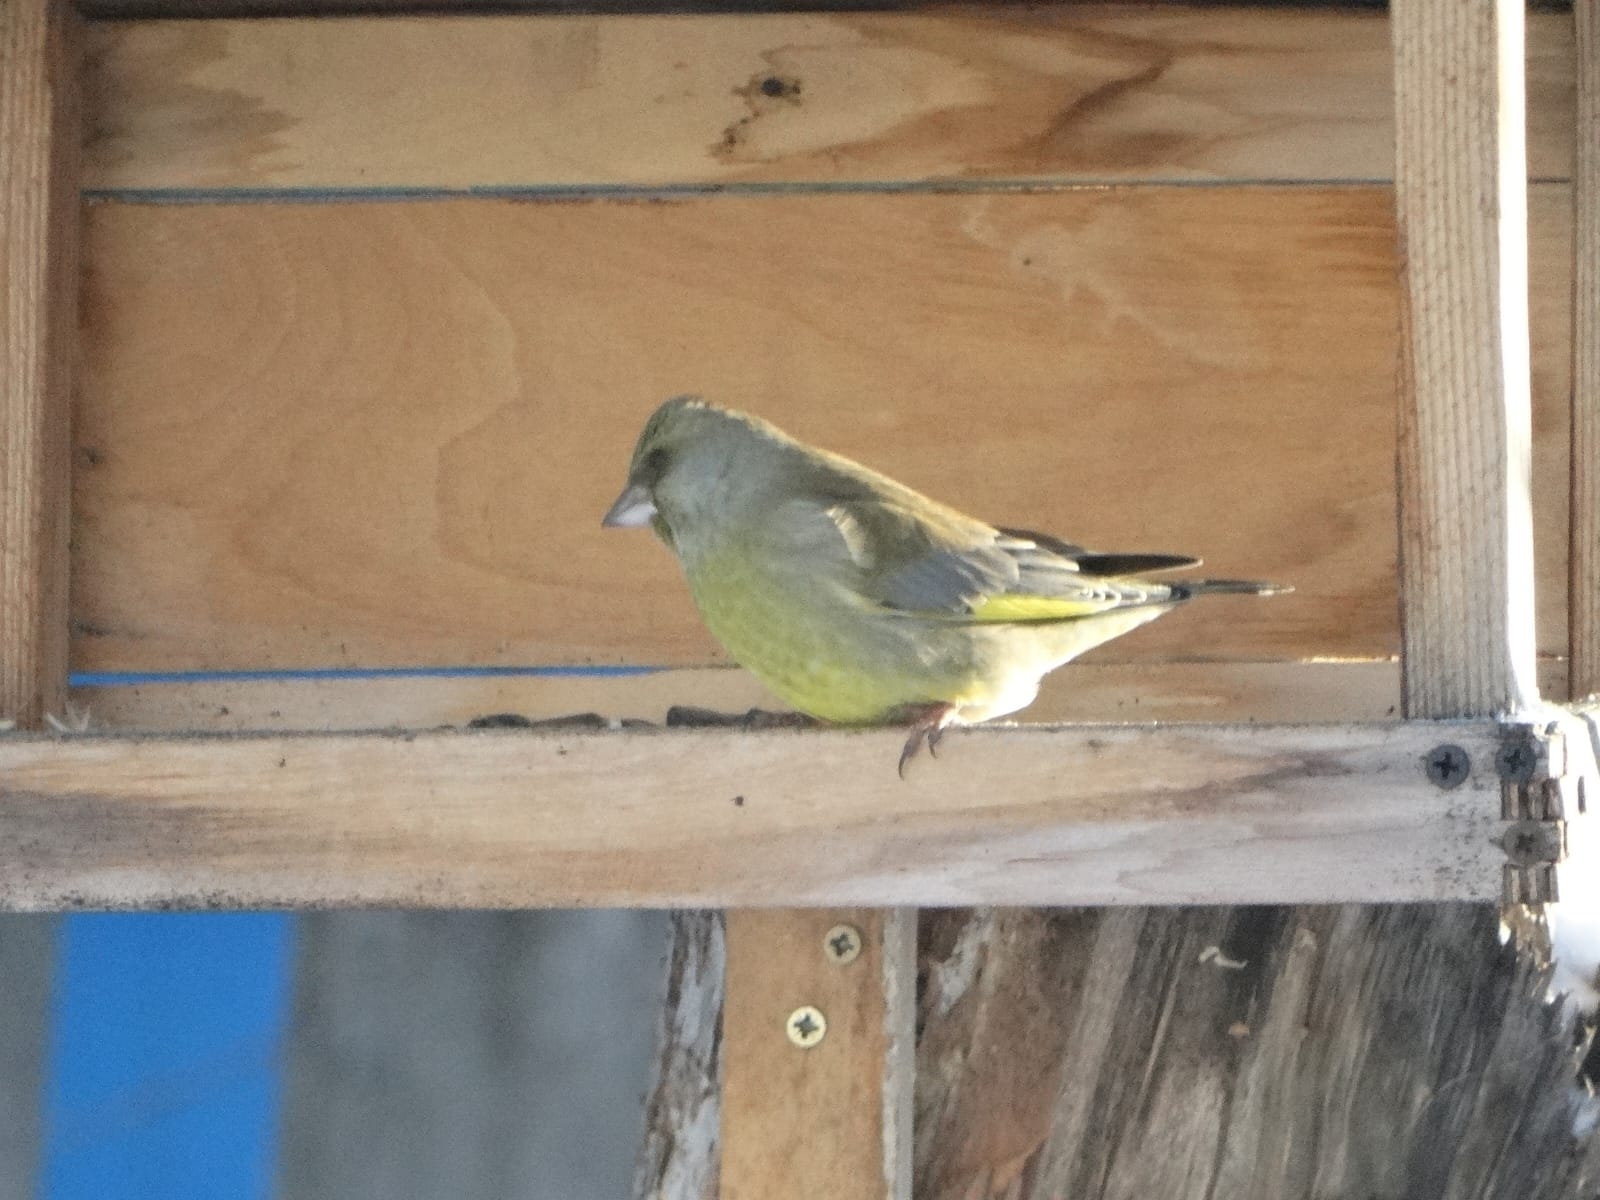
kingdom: Plantae
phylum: Tracheophyta
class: Liliopsida
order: Poales
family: Poaceae
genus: Chloris
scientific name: Chloris chloris
